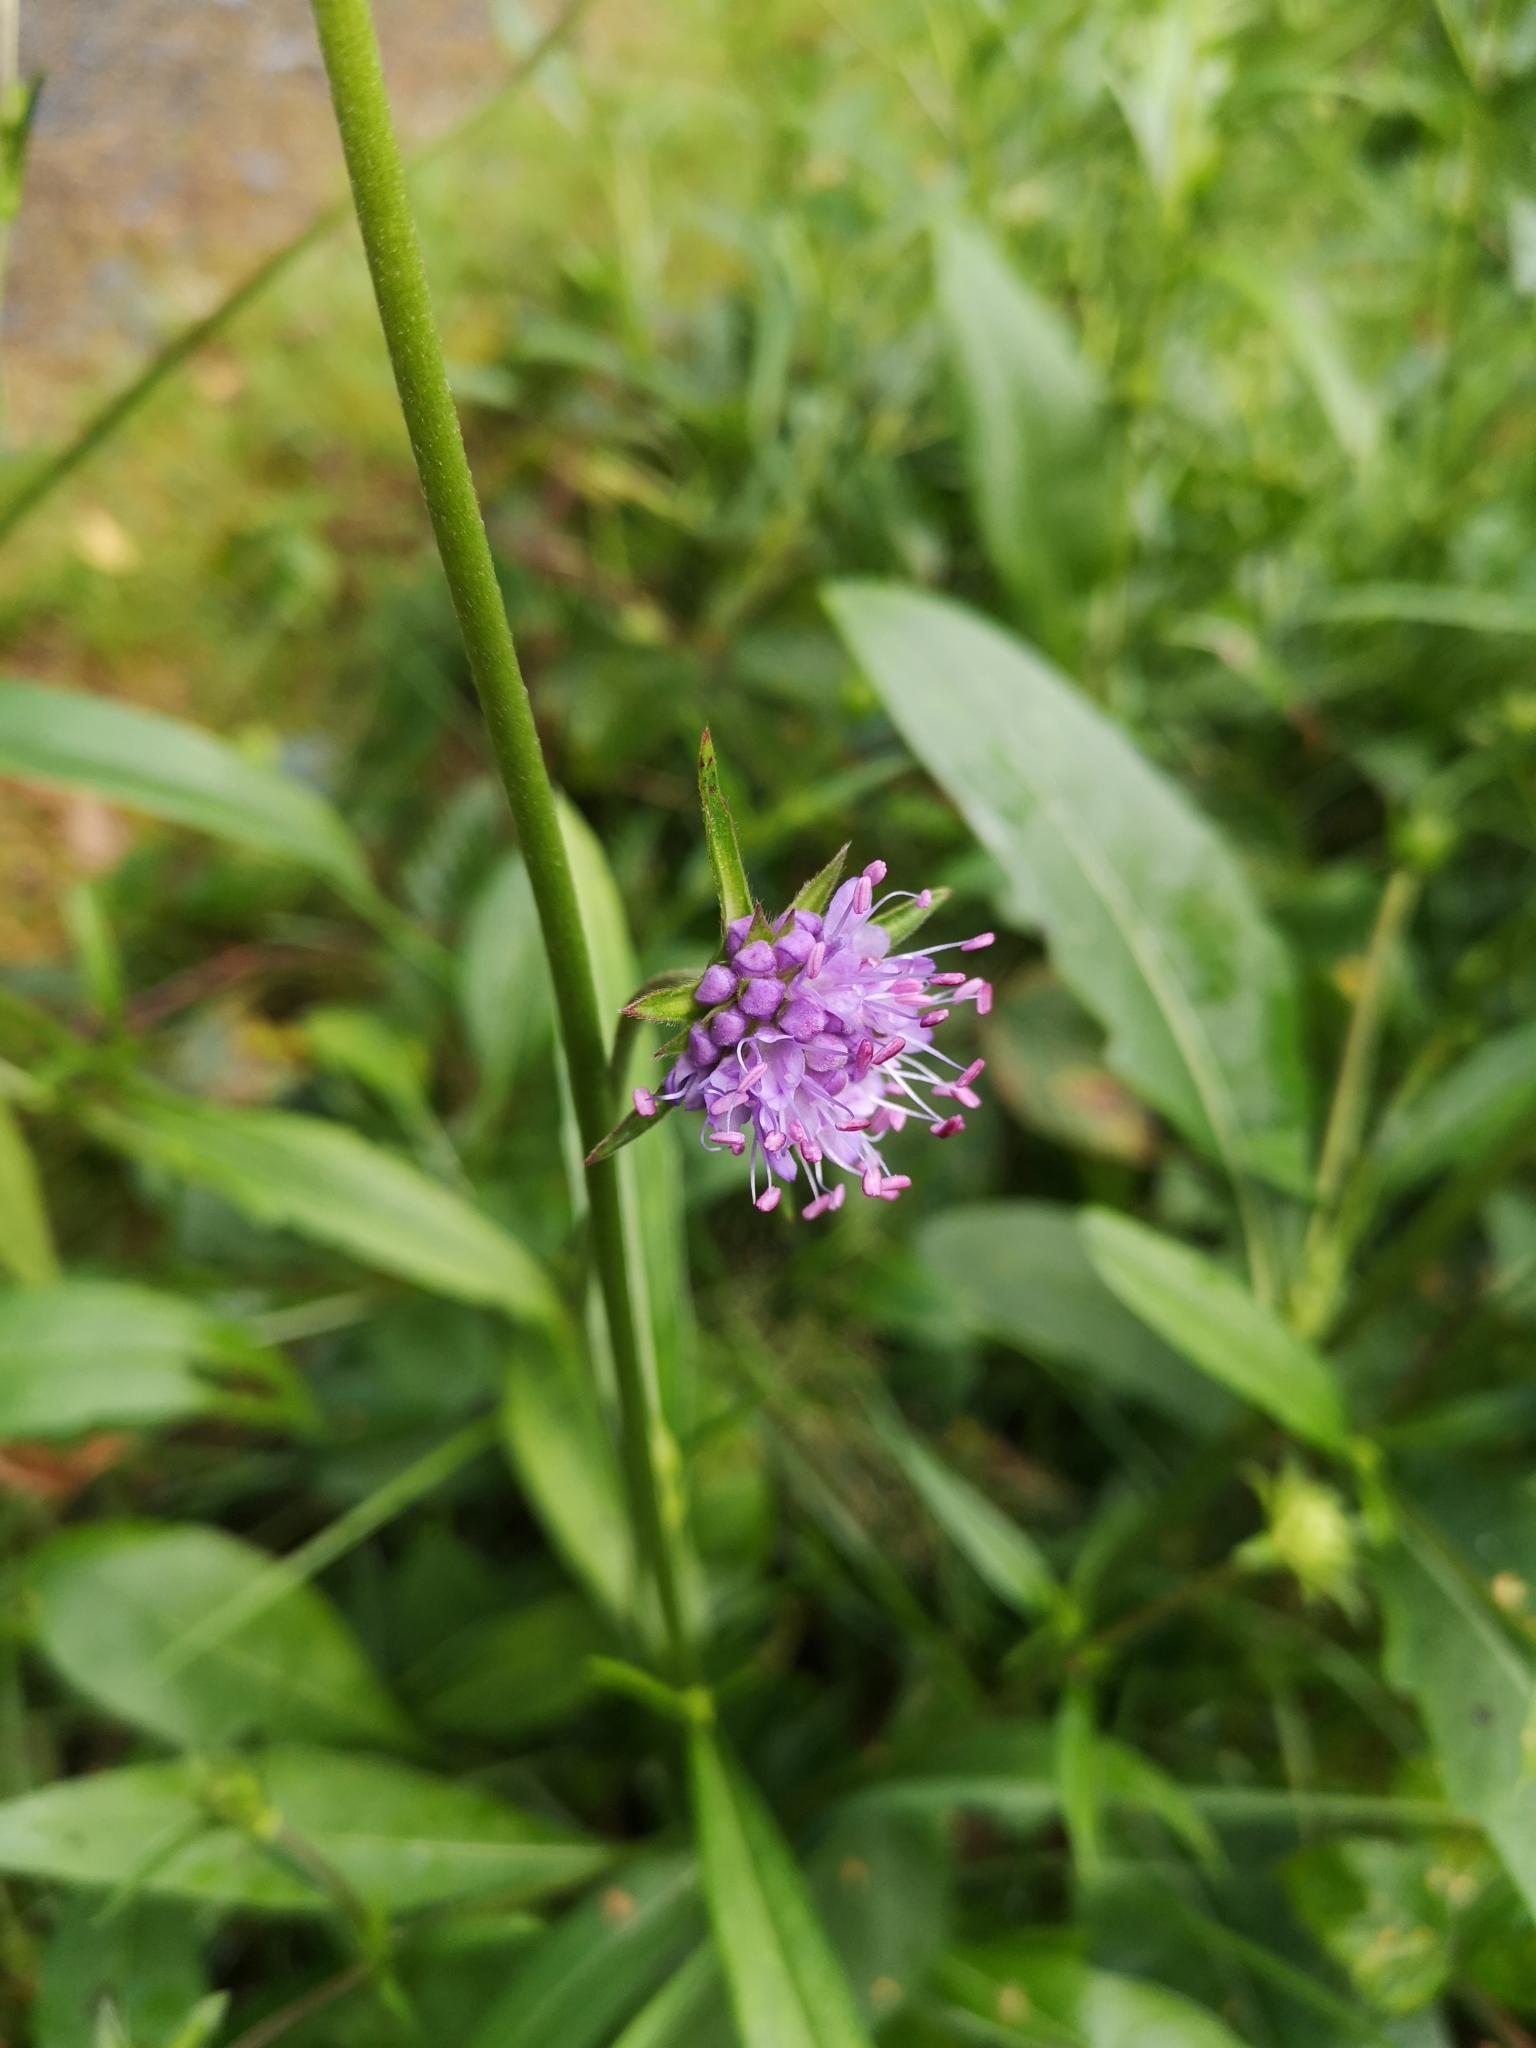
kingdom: Plantae
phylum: Tracheophyta
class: Magnoliopsida
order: Dipsacales
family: Caprifoliaceae
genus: Succisa
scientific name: Succisa pratensis
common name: Devil's-bit
